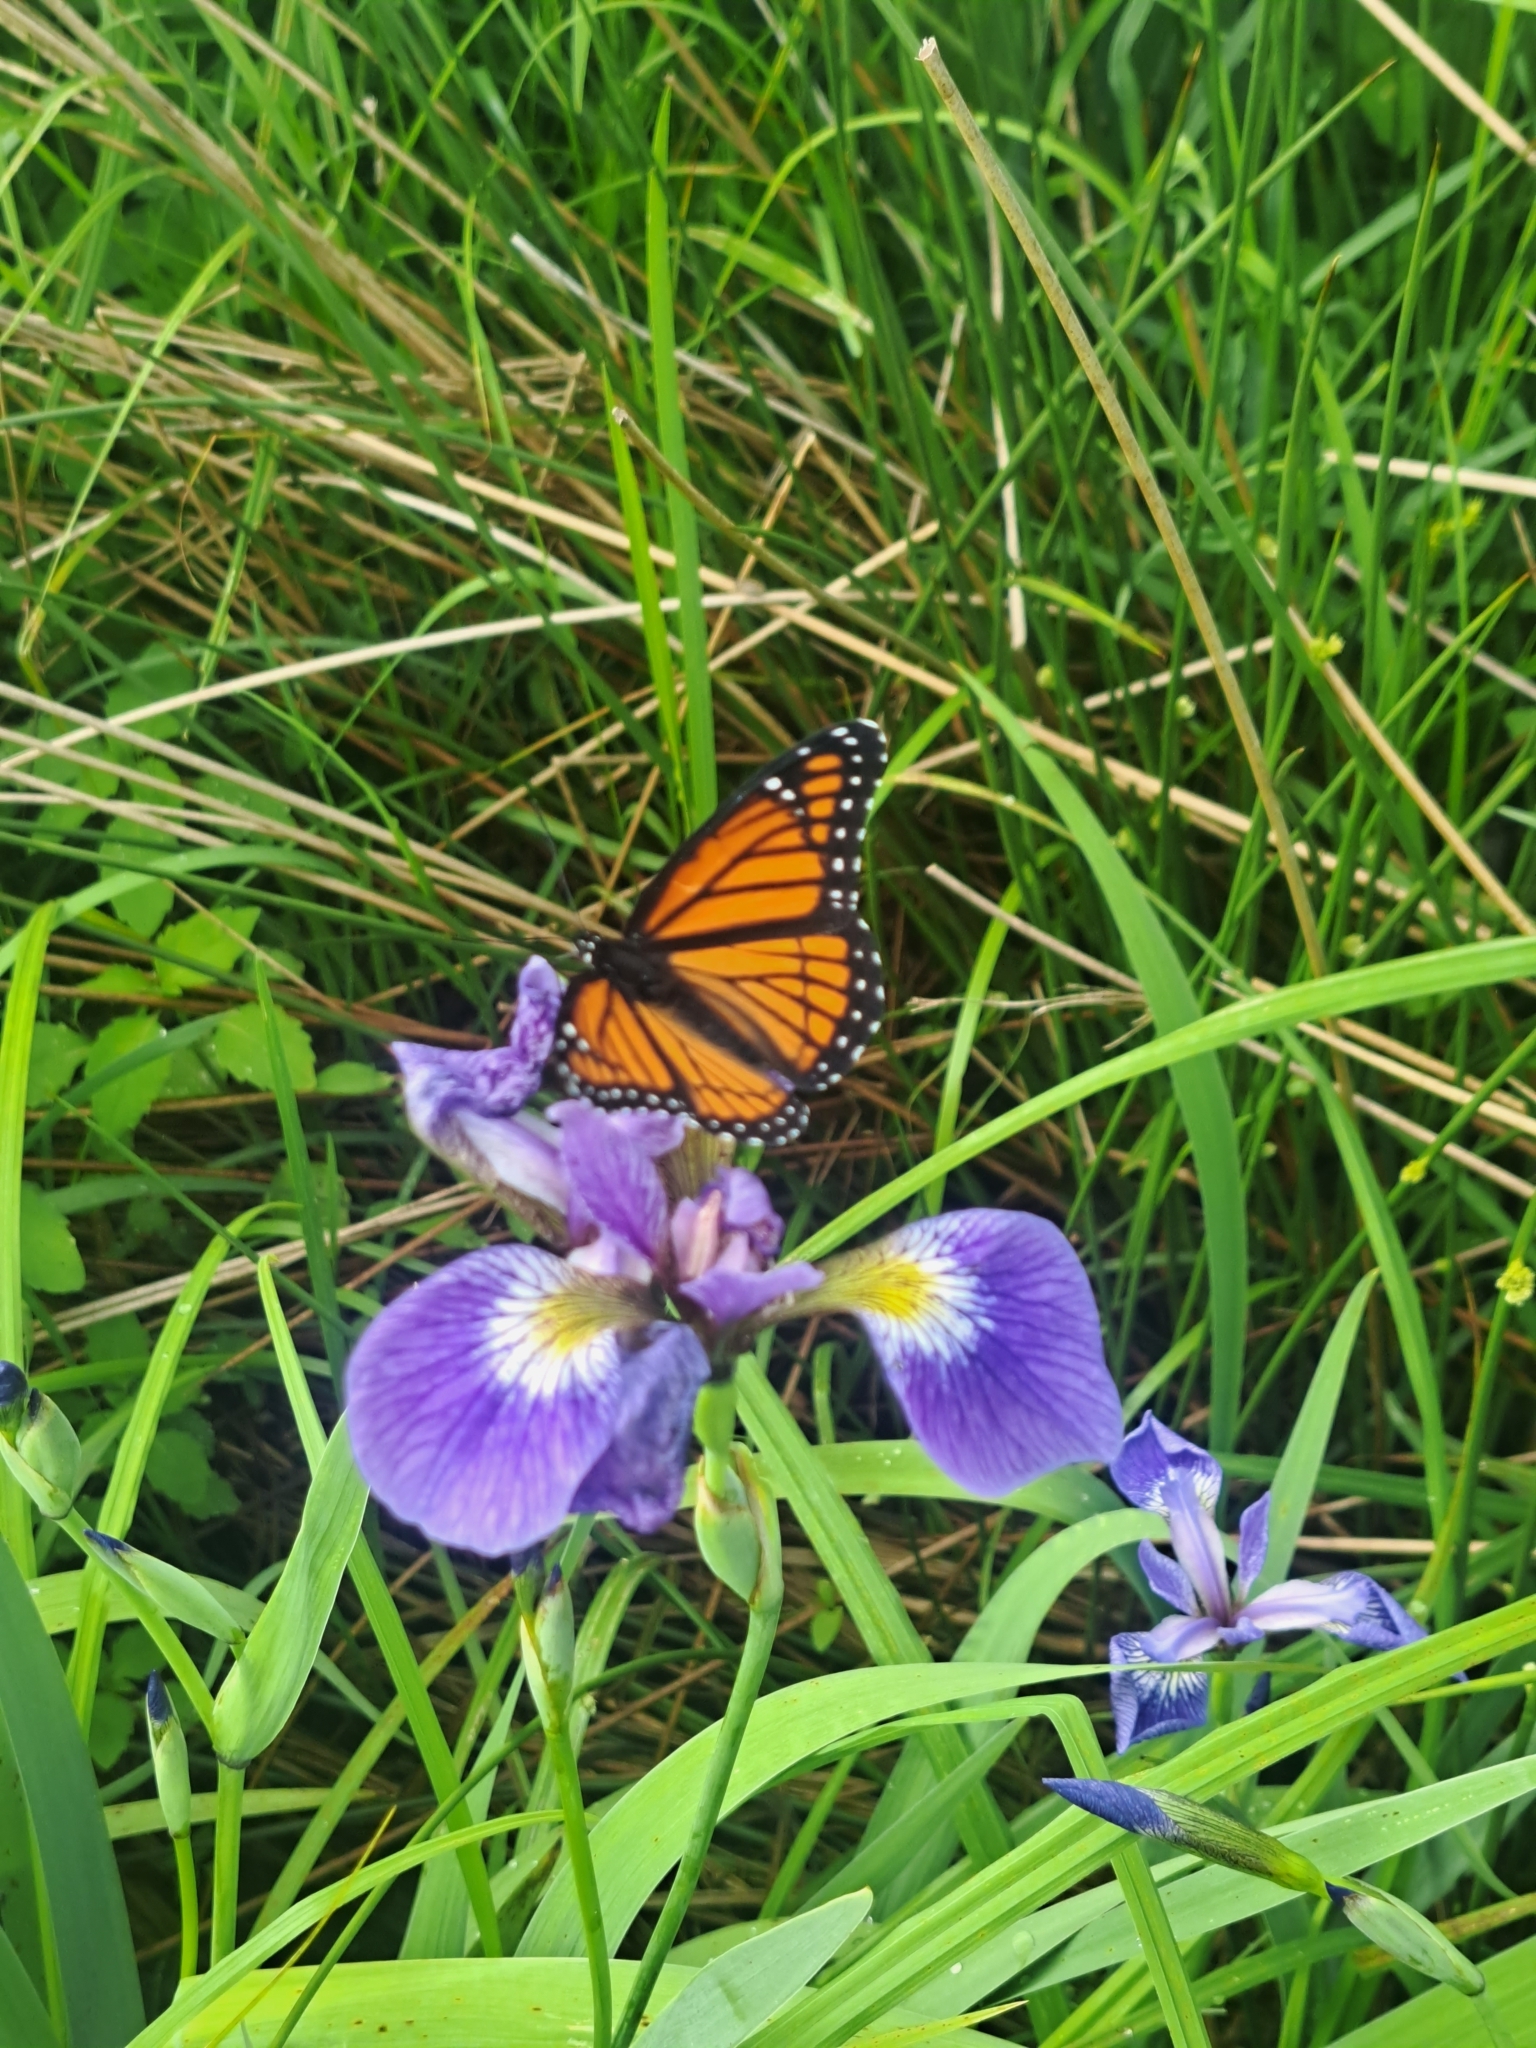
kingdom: Animalia
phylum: Arthropoda
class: Insecta
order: Lepidoptera
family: Nymphalidae
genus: Limenitis
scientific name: Limenitis archippus
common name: Viceroy
